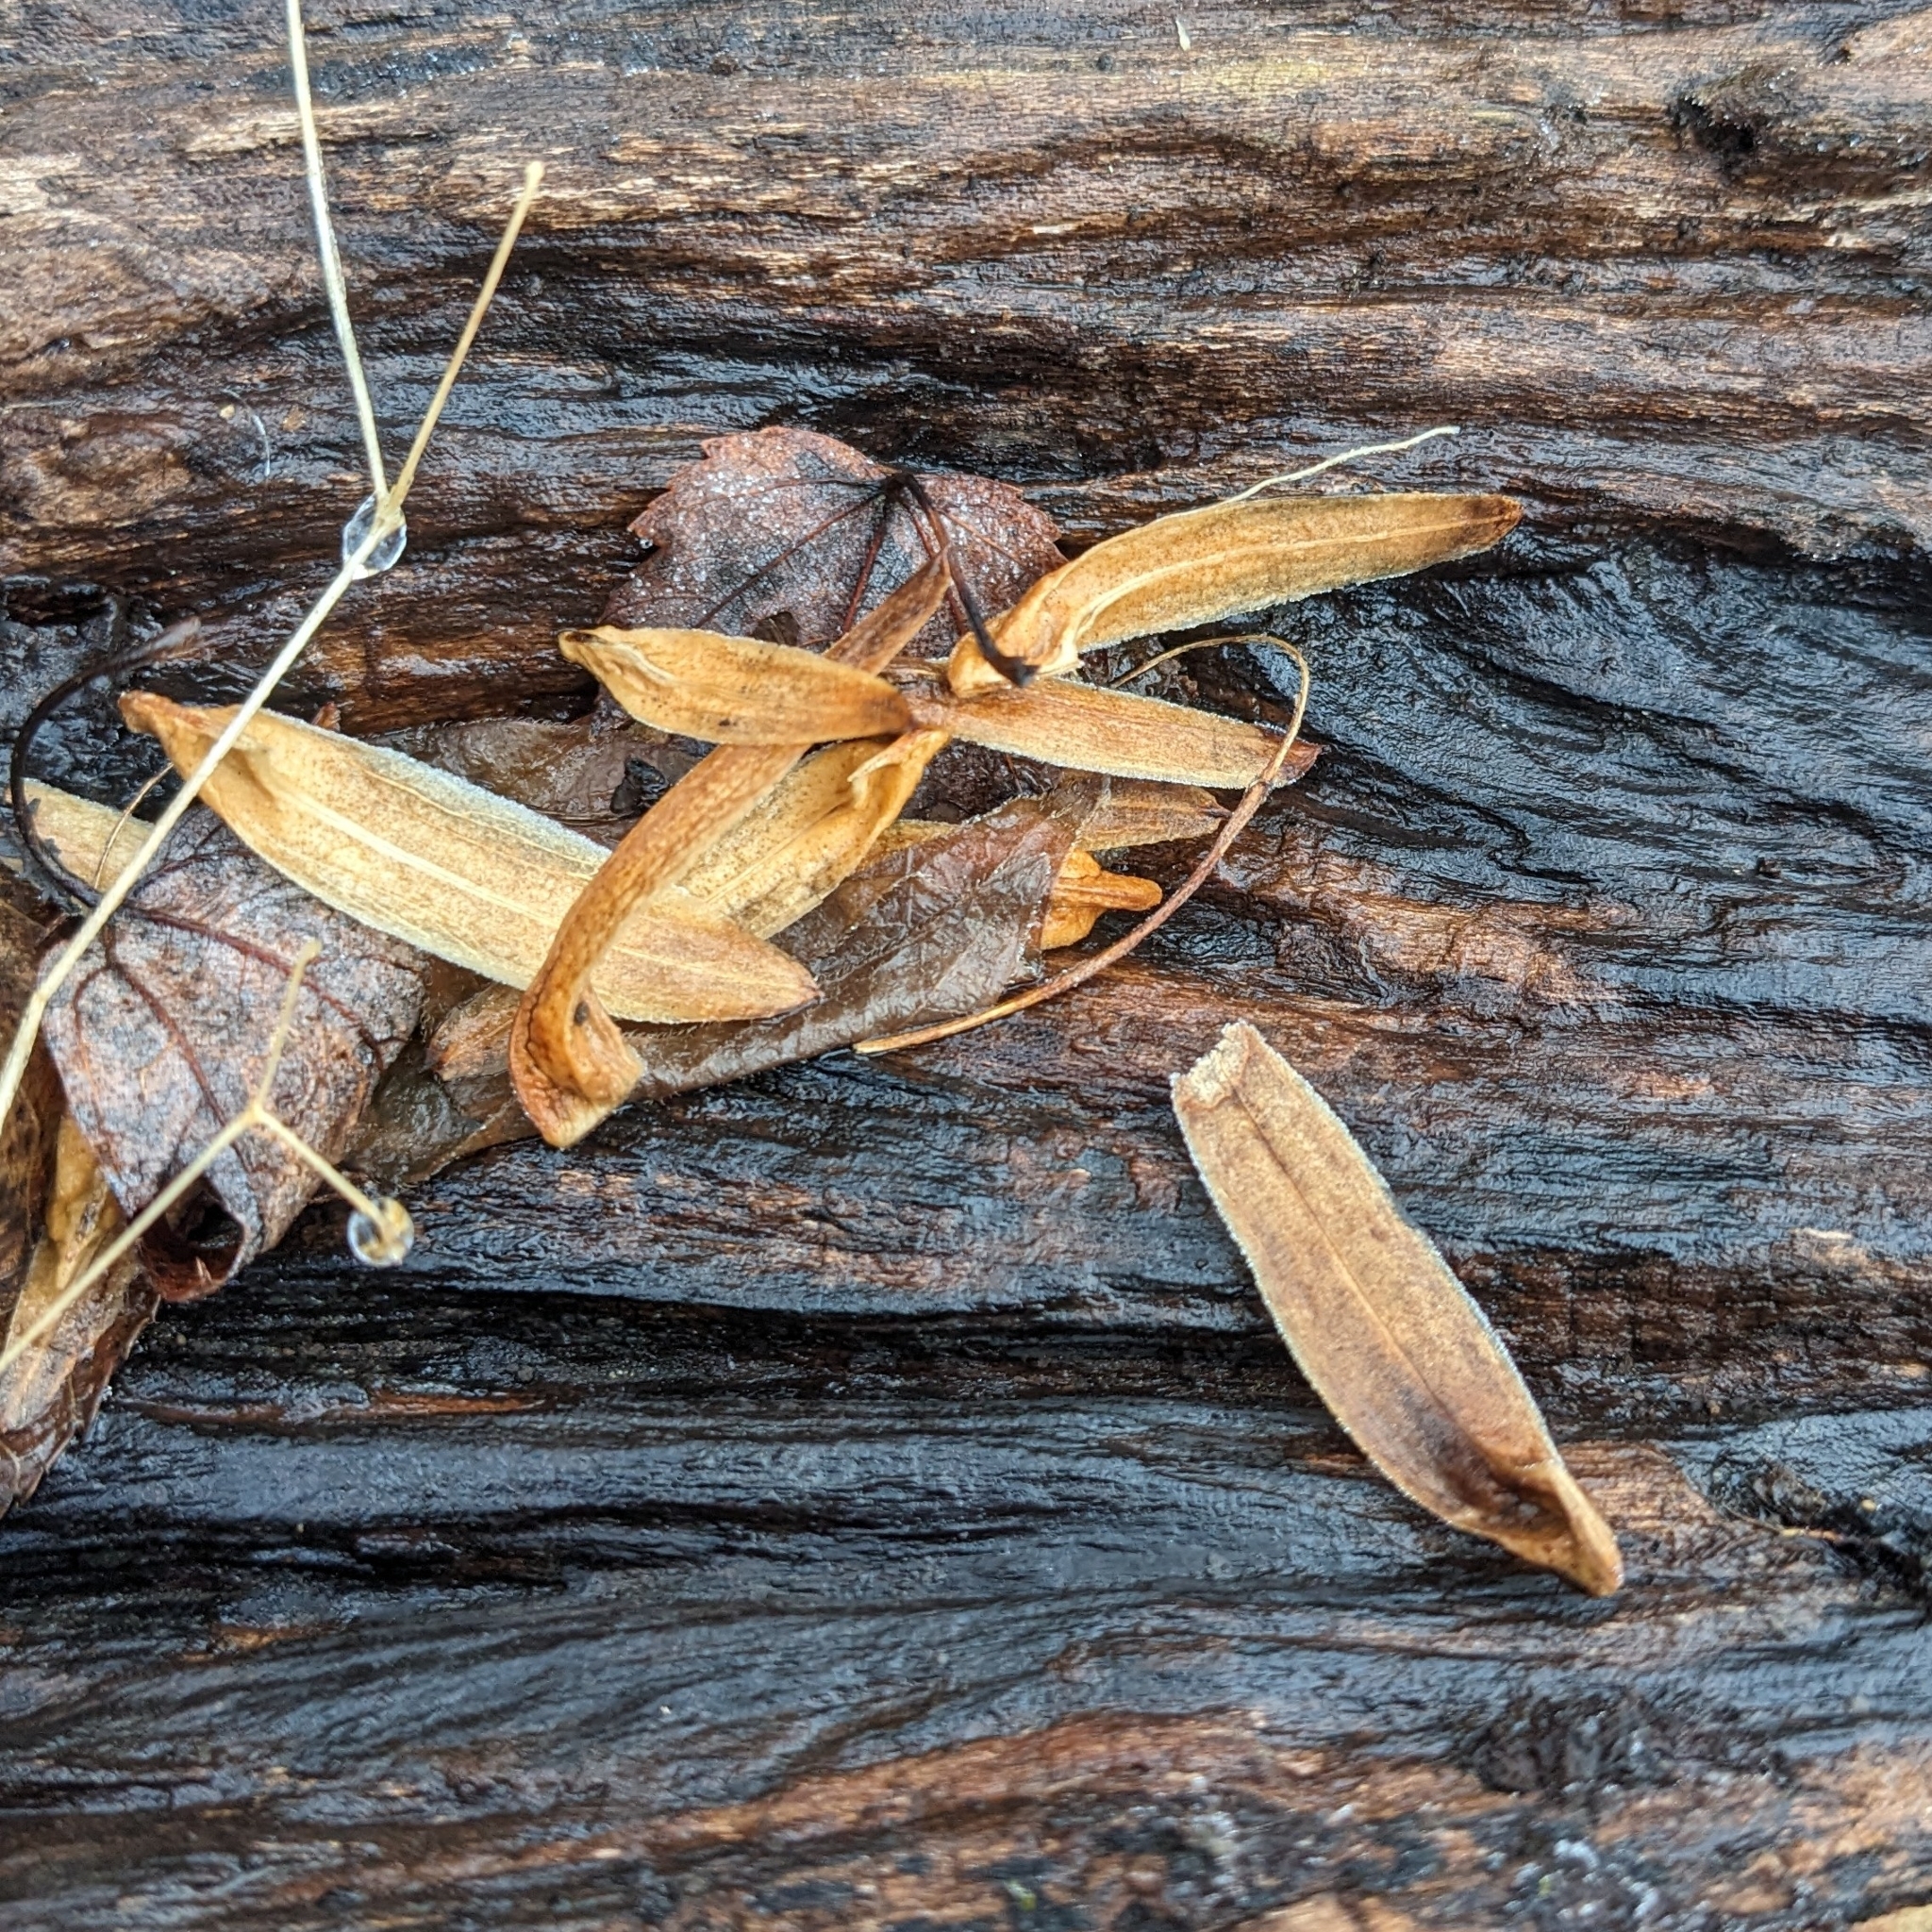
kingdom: Plantae
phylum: Tracheophyta
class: Magnoliopsida
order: Magnoliales
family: Magnoliaceae
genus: Liriodendron
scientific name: Liriodendron tulipifera
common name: Tulip tree
